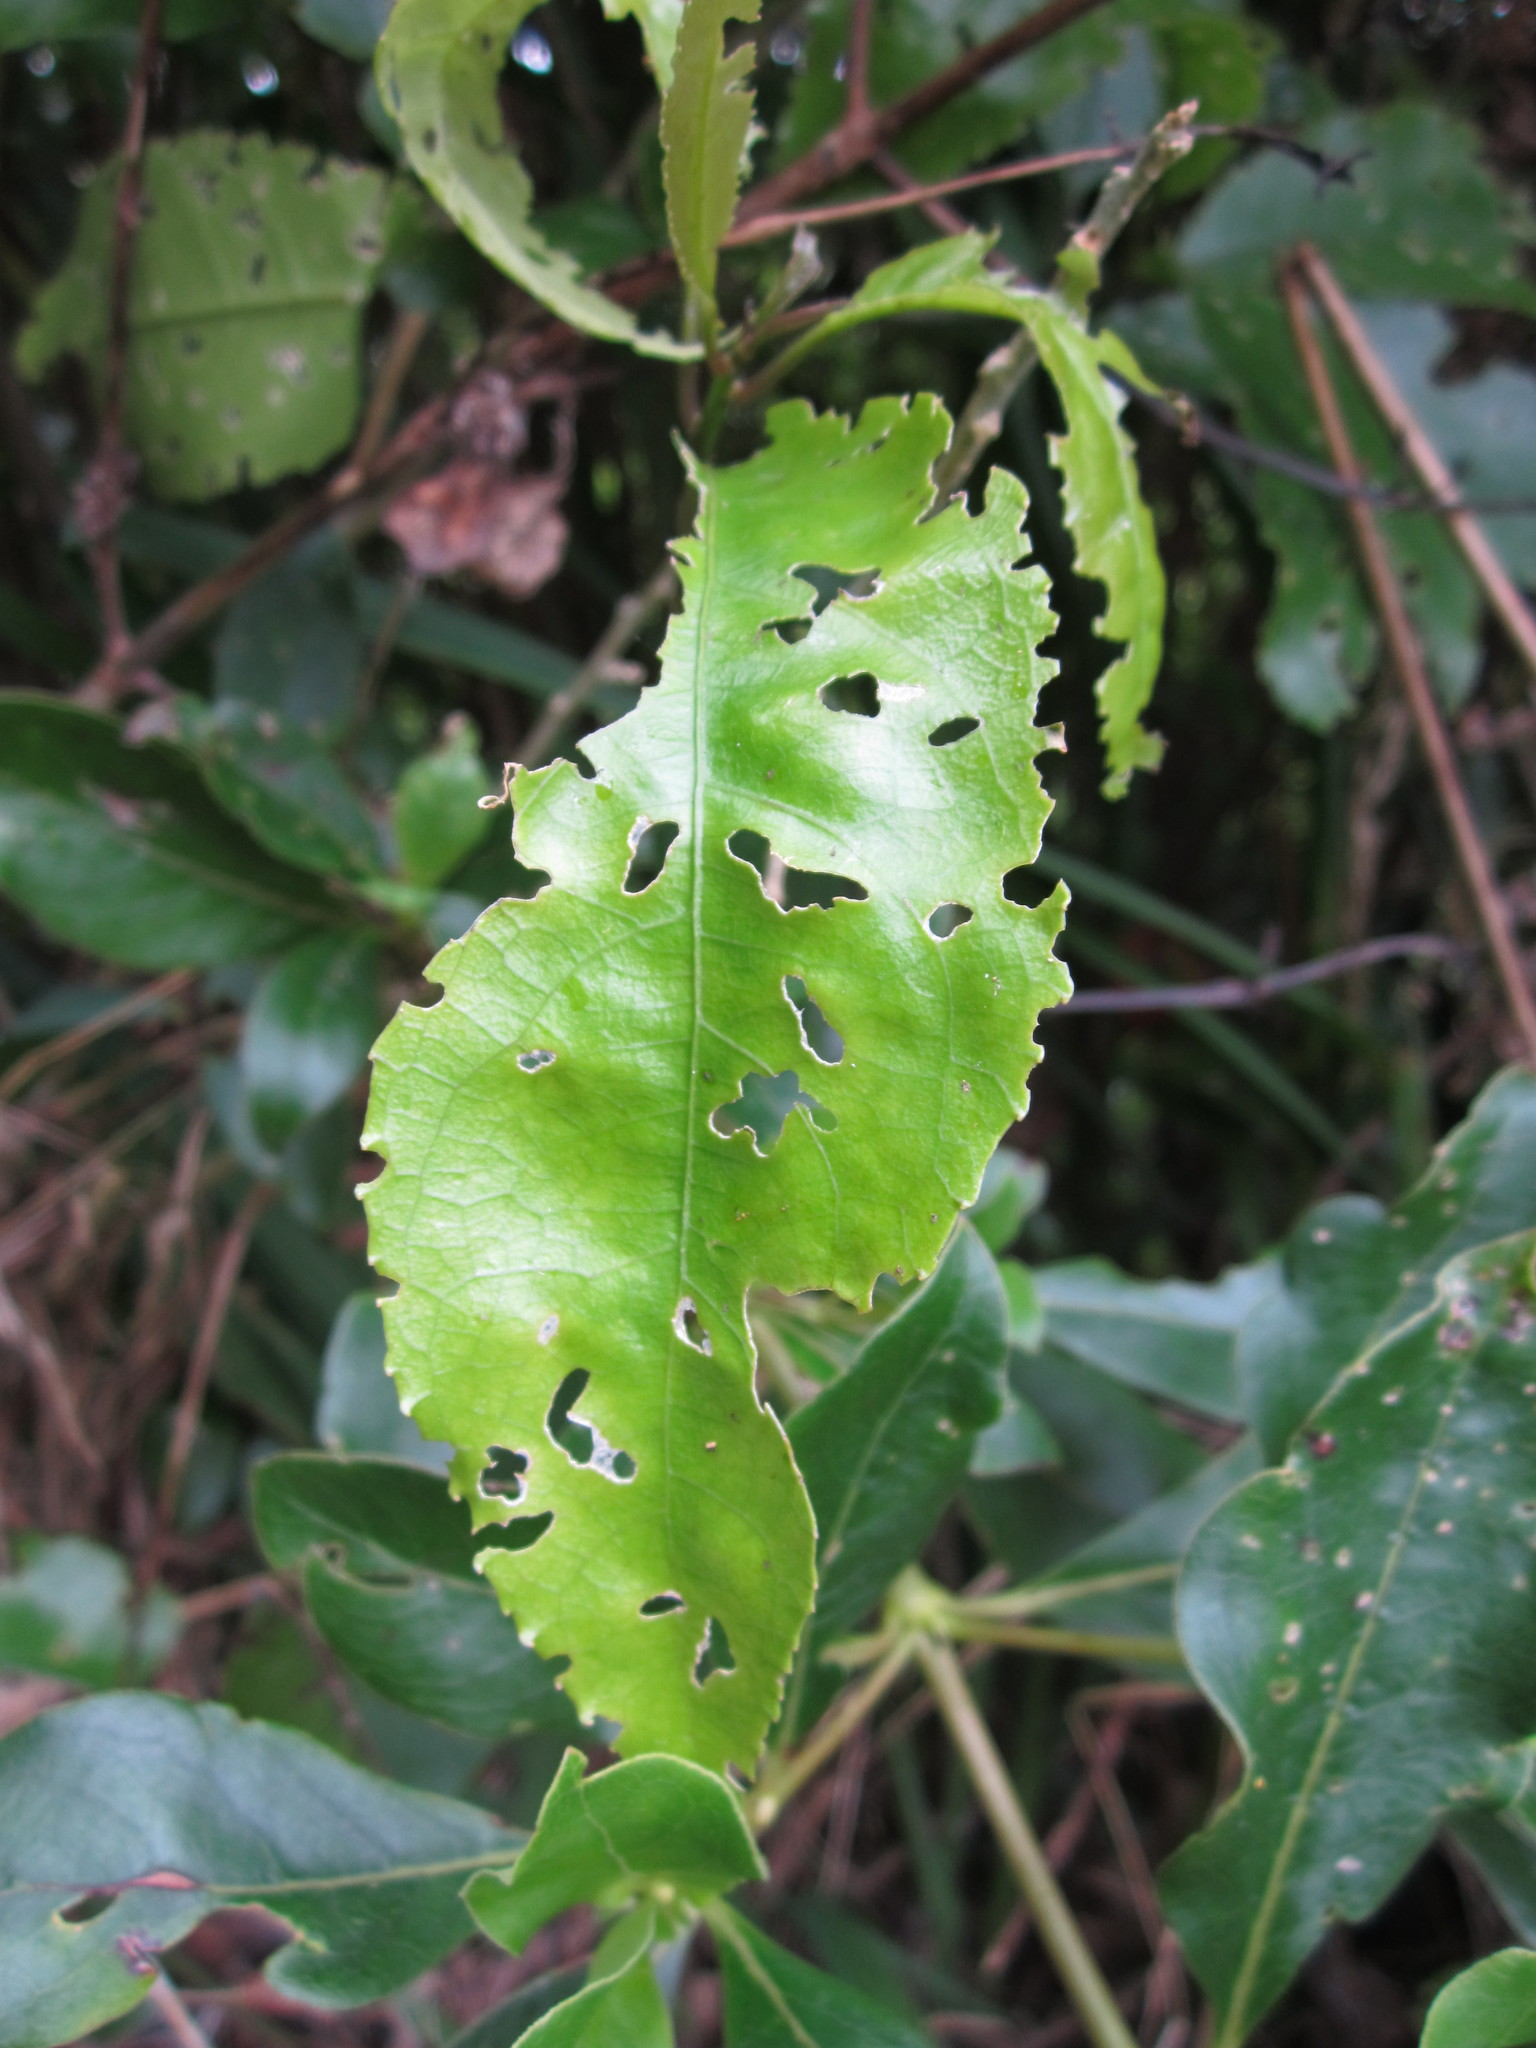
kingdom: Plantae
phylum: Tracheophyta
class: Magnoliopsida
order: Malpighiales
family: Violaceae
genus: Melicytus
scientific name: Melicytus ramiflorus
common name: Mahoe
